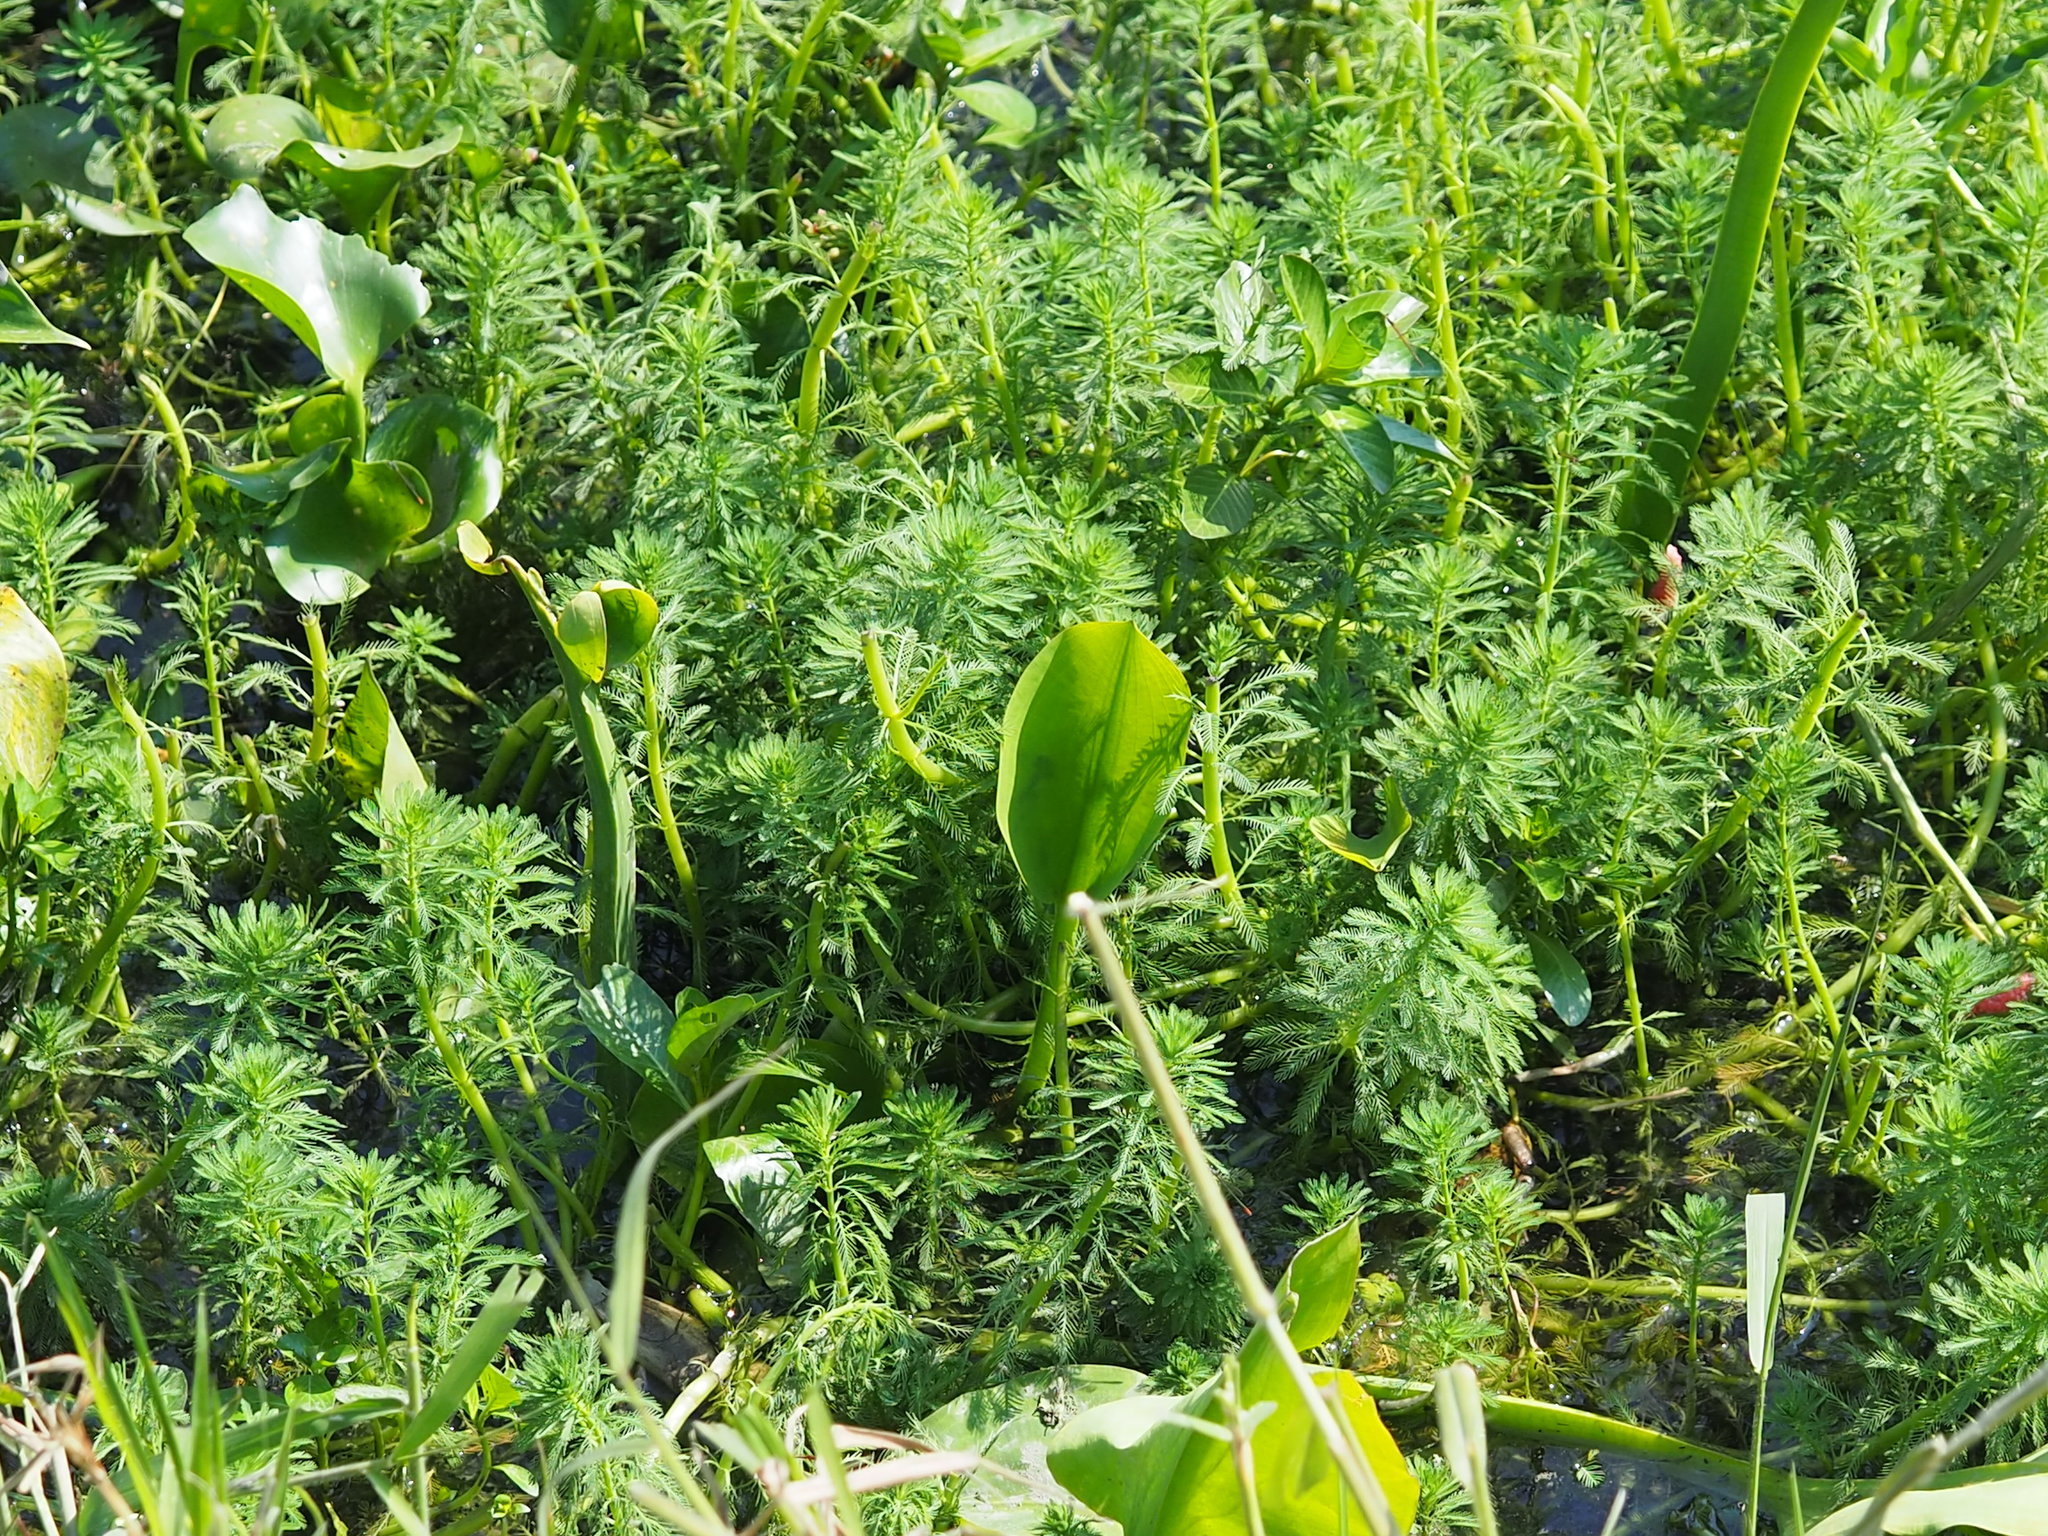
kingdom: Plantae
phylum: Tracheophyta
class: Liliopsida
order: Alismatales
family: Alismataceae
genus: Limnocharis
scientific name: Limnocharis flava
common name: Sawah-flower-rush
